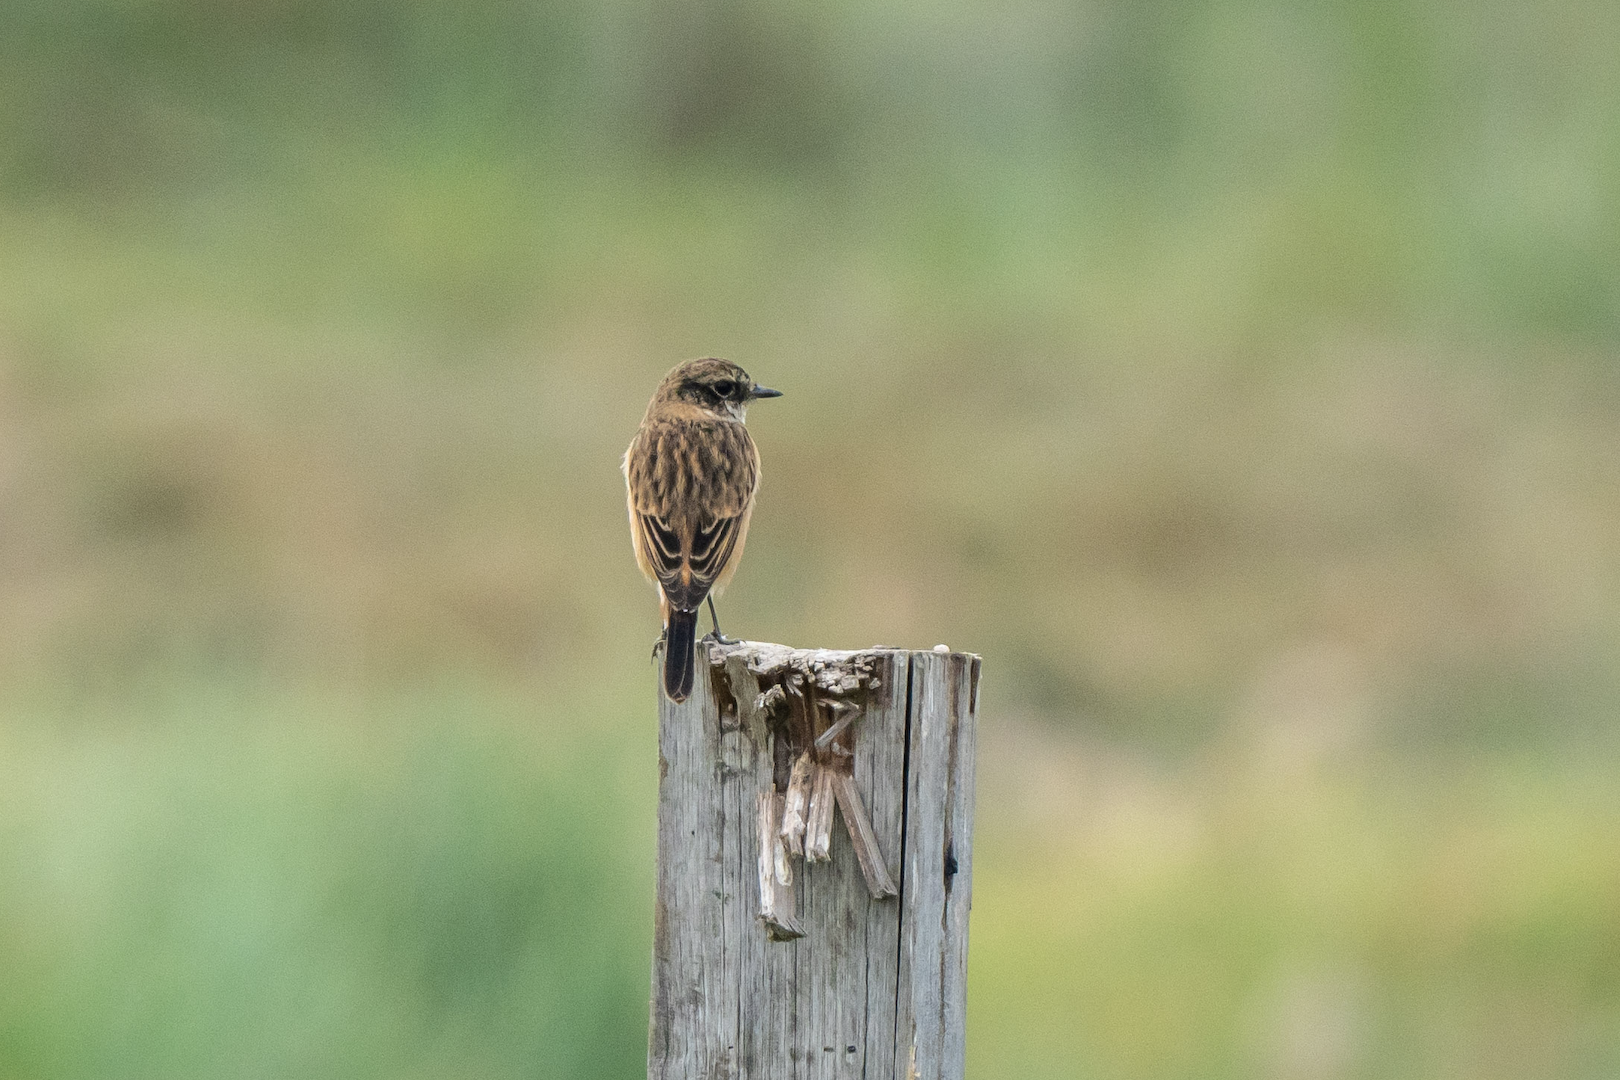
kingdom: Animalia
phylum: Chordata
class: Aves
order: Passeriformes
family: Muscicapidae
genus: Saxicola
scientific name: Saxicola stejnegeri
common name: Stejneger's stonechat
